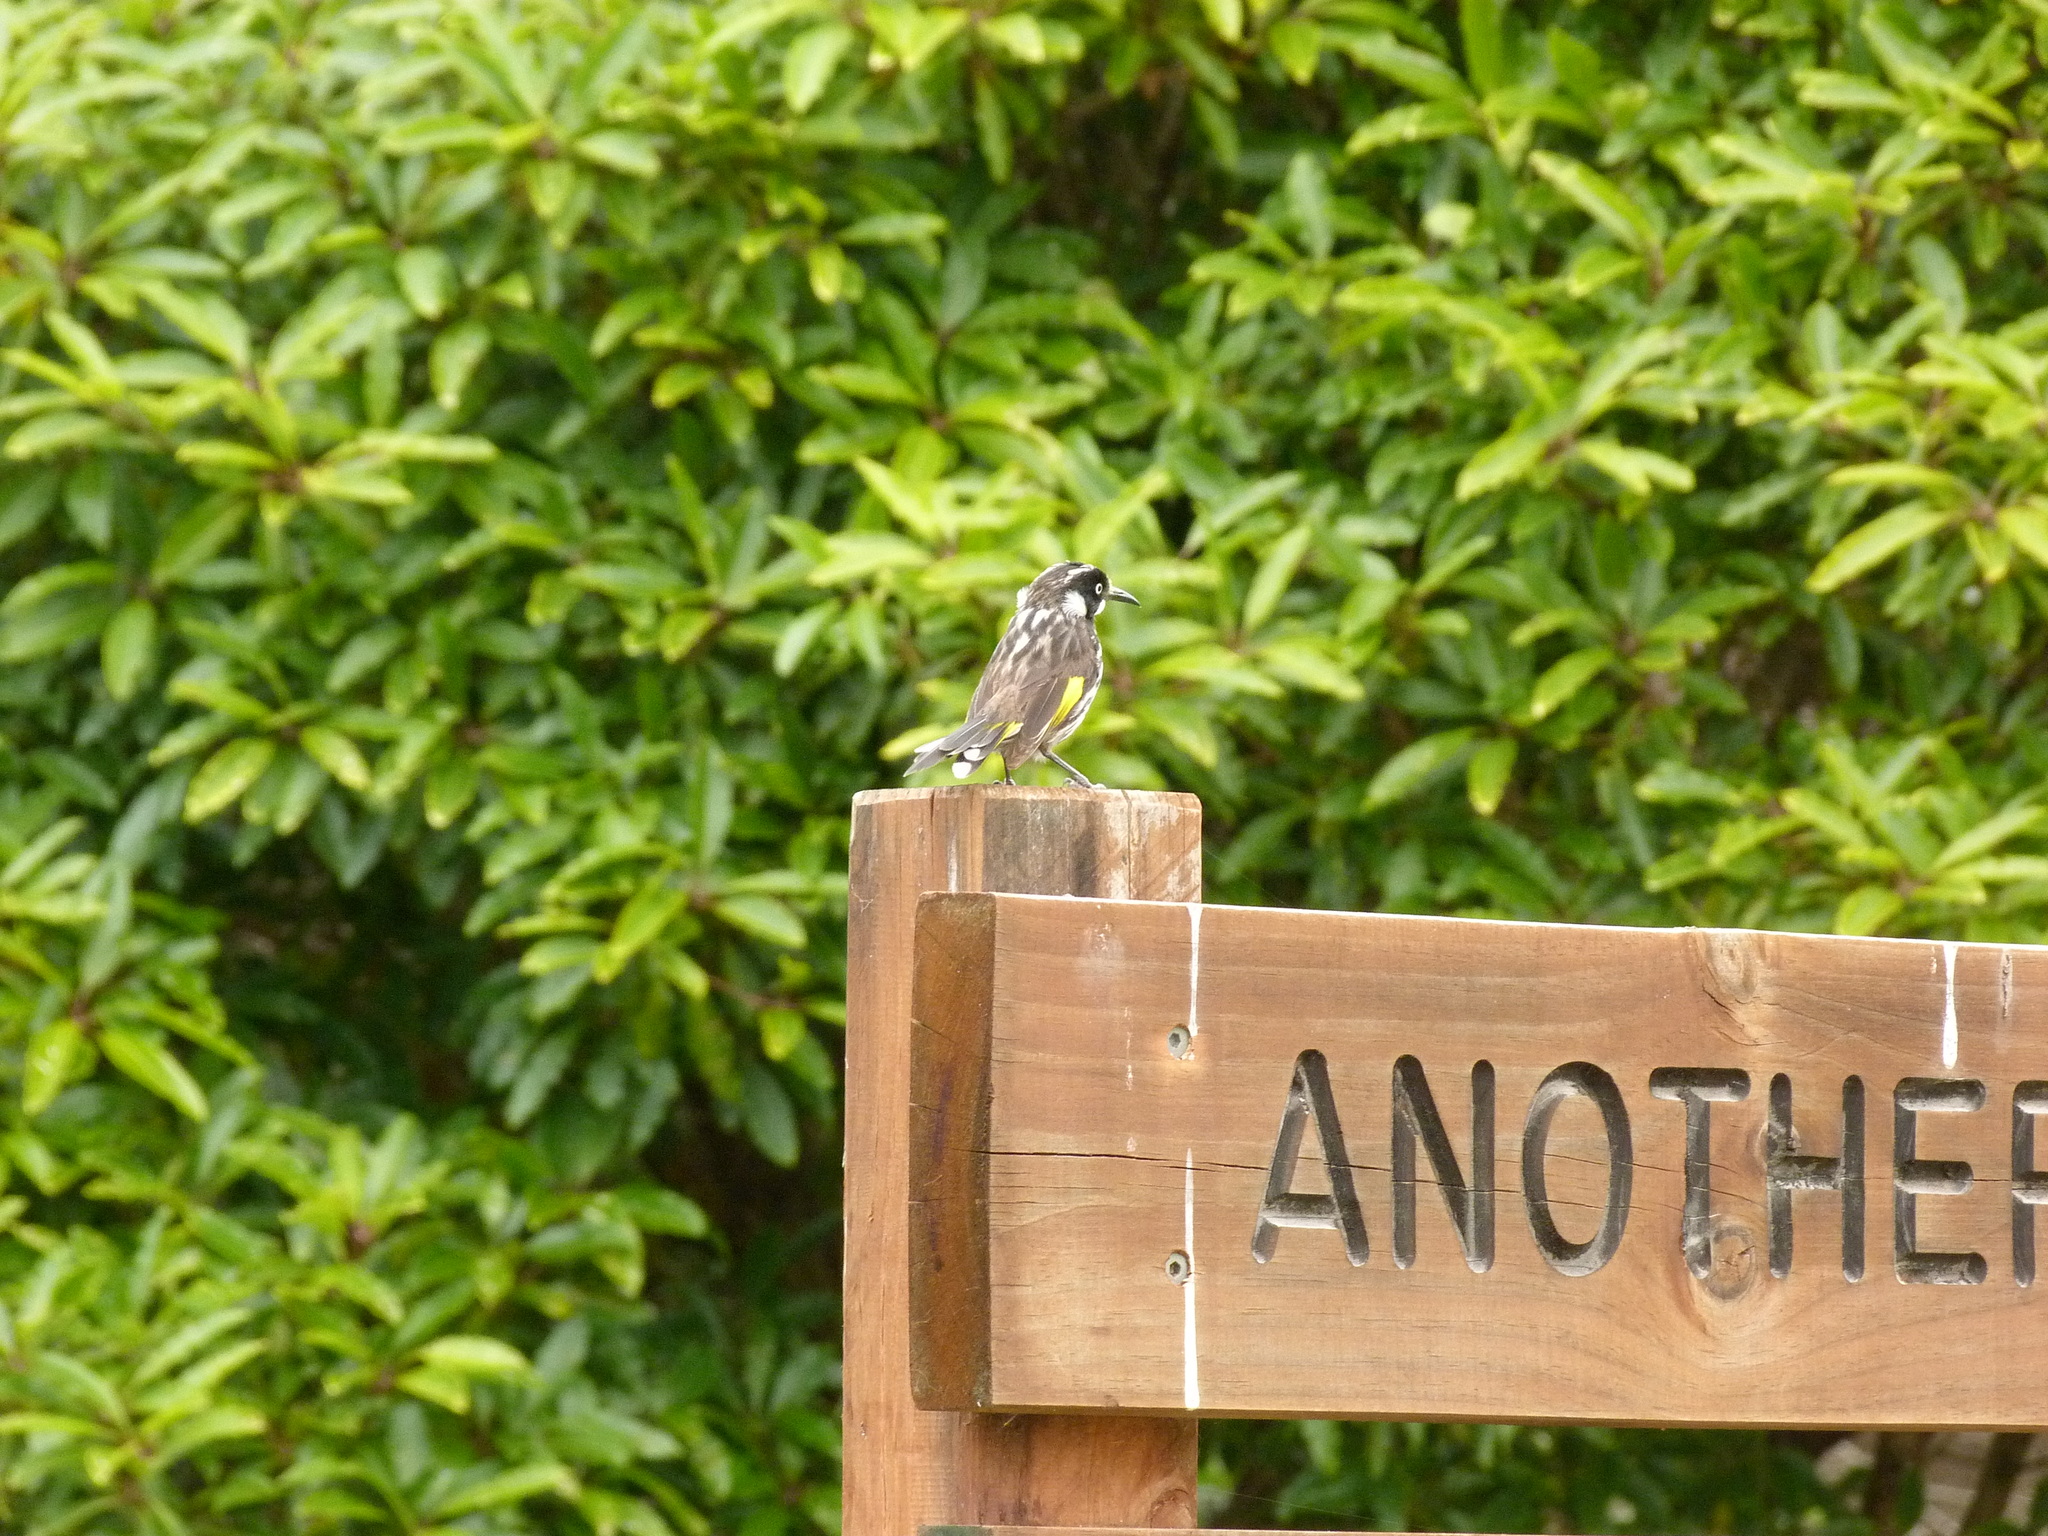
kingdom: Animalia
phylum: Chordata
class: Aves
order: Passeriformes
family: Meliphagidae
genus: Phylidonyris
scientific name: Phylidonyris novaehollandiae
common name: New holland honeyeater
